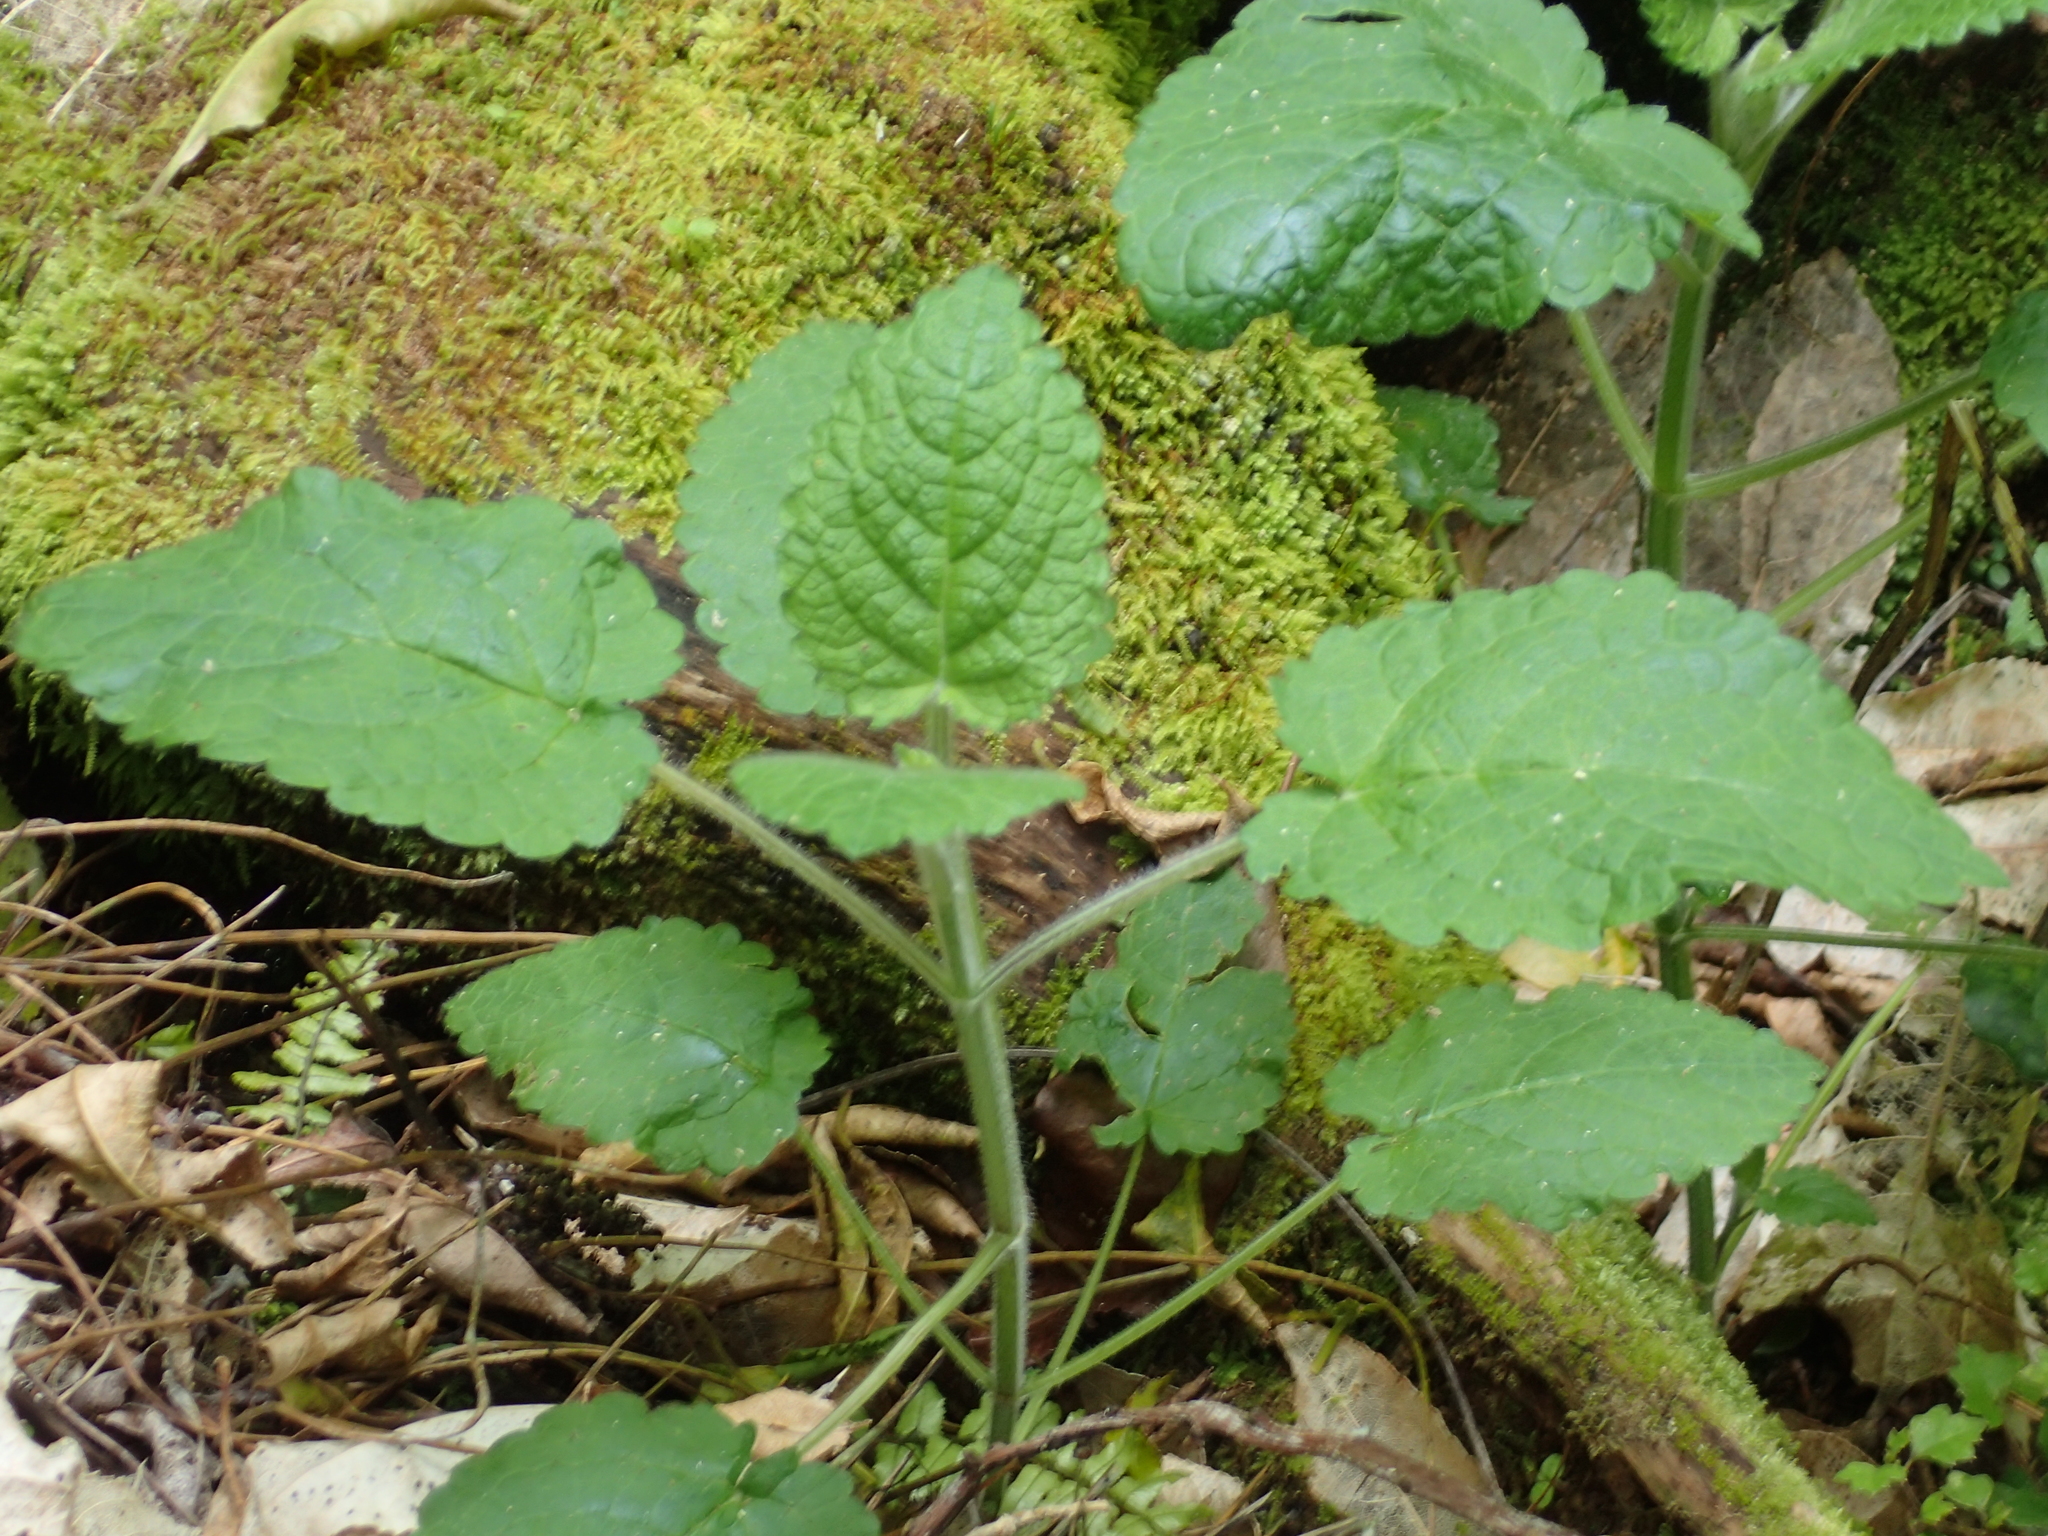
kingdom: Plantae
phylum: Tracheophyta
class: Magnoliopsida
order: Lamiales
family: Lamiaceae
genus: Stachys
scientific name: Stachys sylvatica
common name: Hedge woundwort
